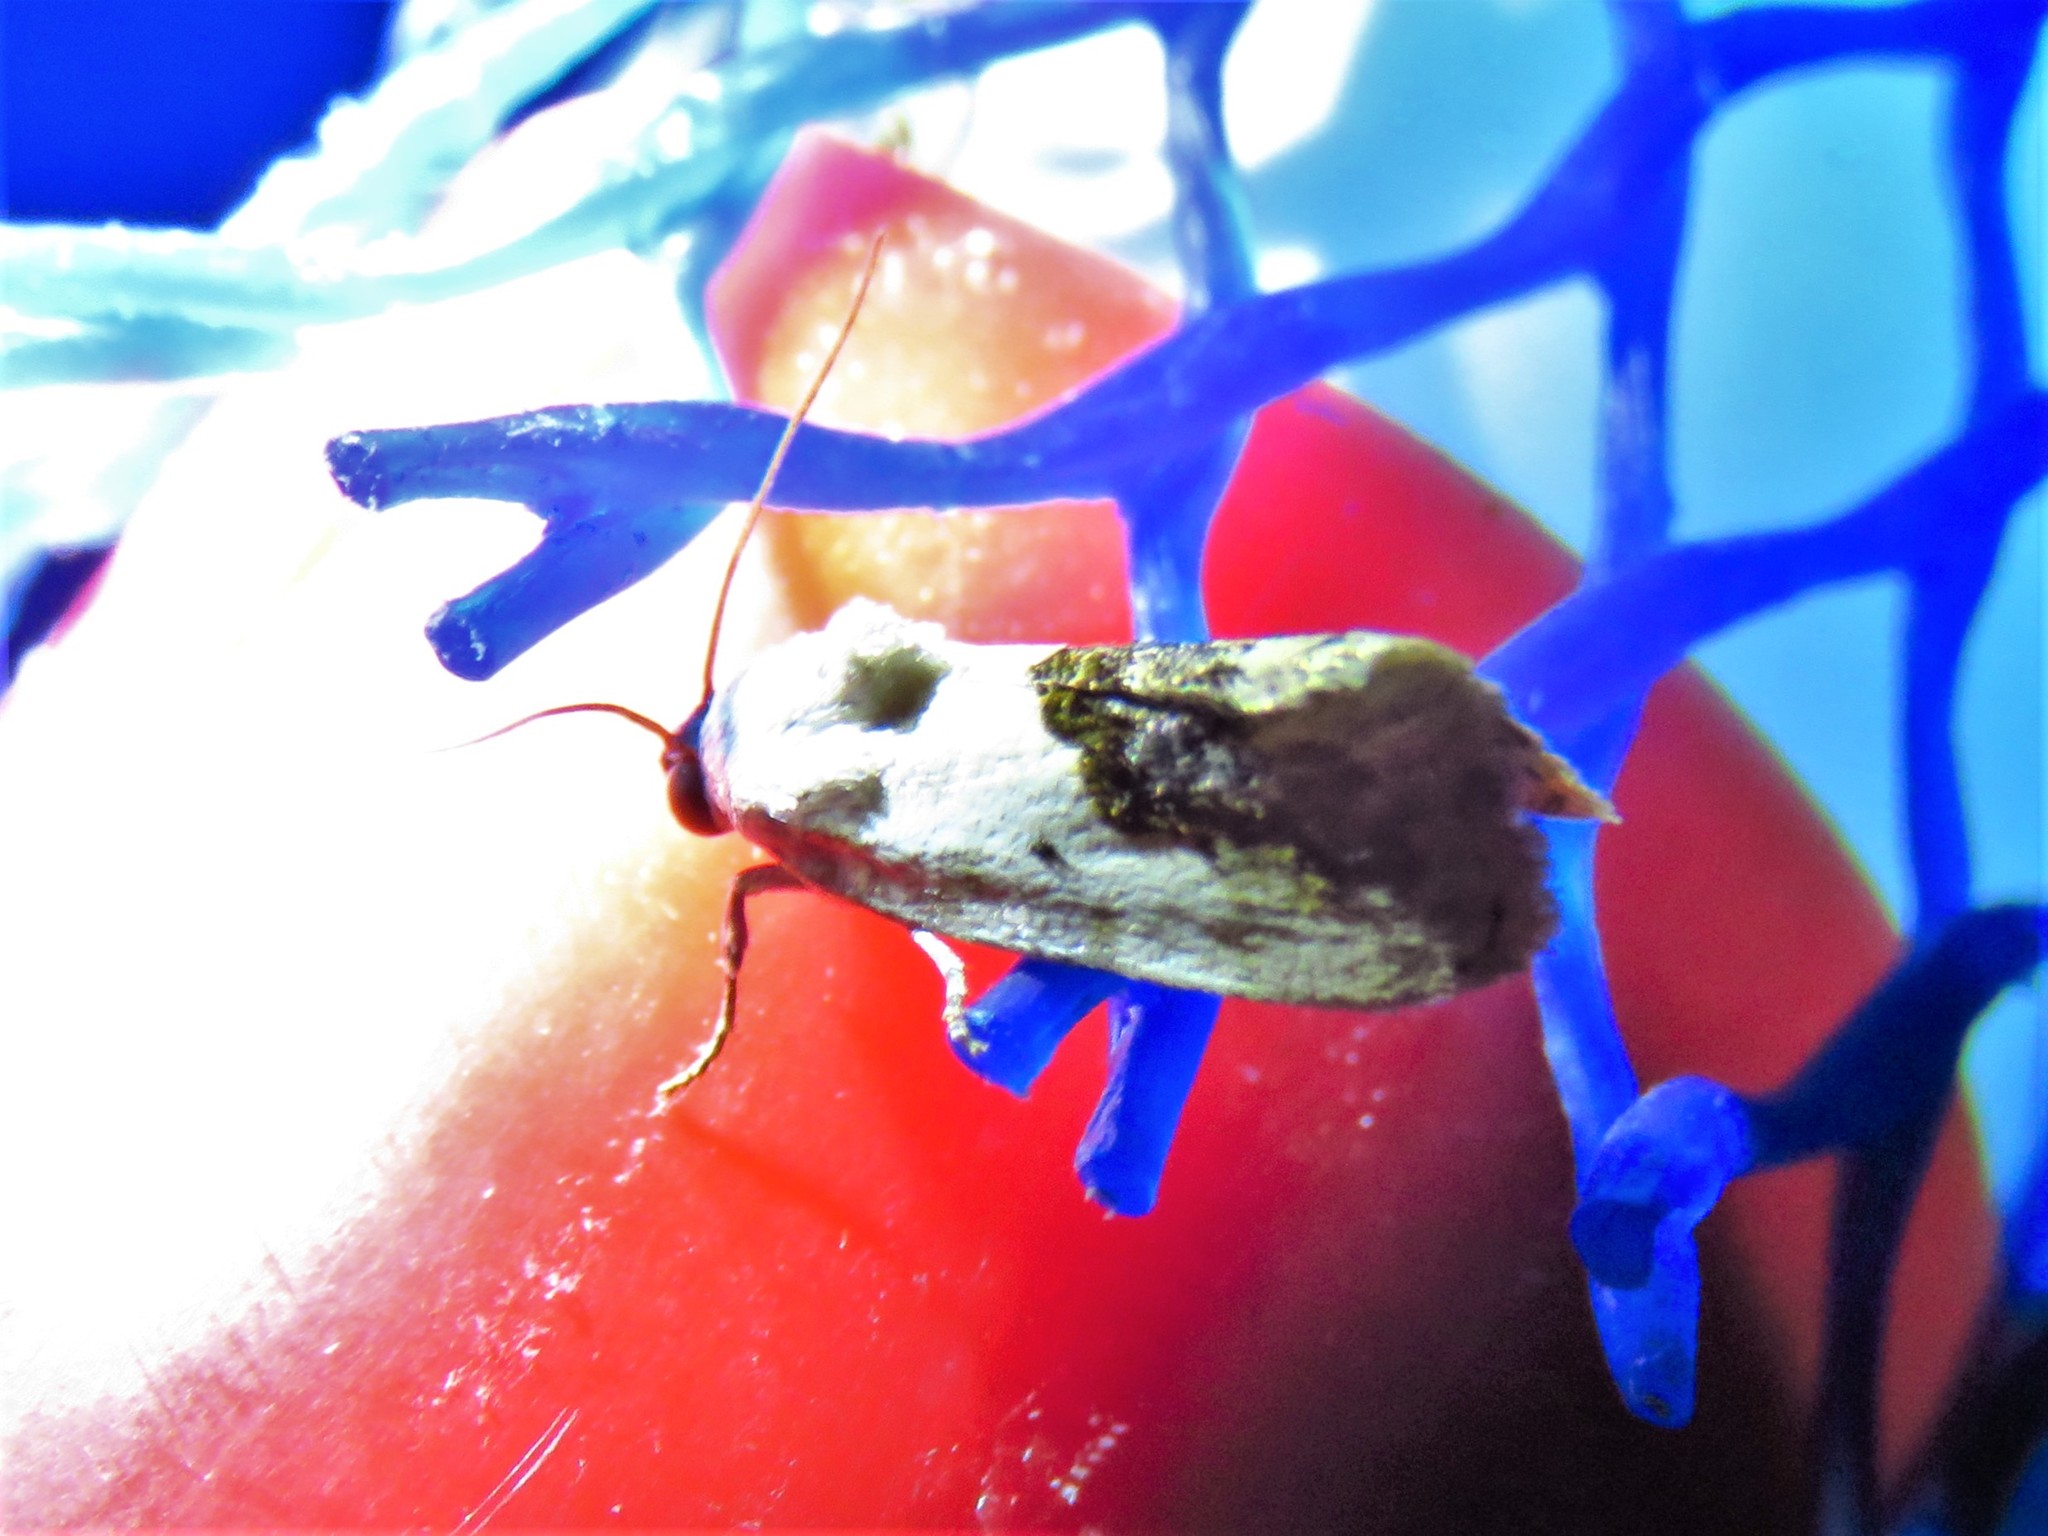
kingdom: Animalia
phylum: Arthropoda
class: Insecta
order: Lepidoptera
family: Noctuidae
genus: Acontia
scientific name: Acontia erastrioides
